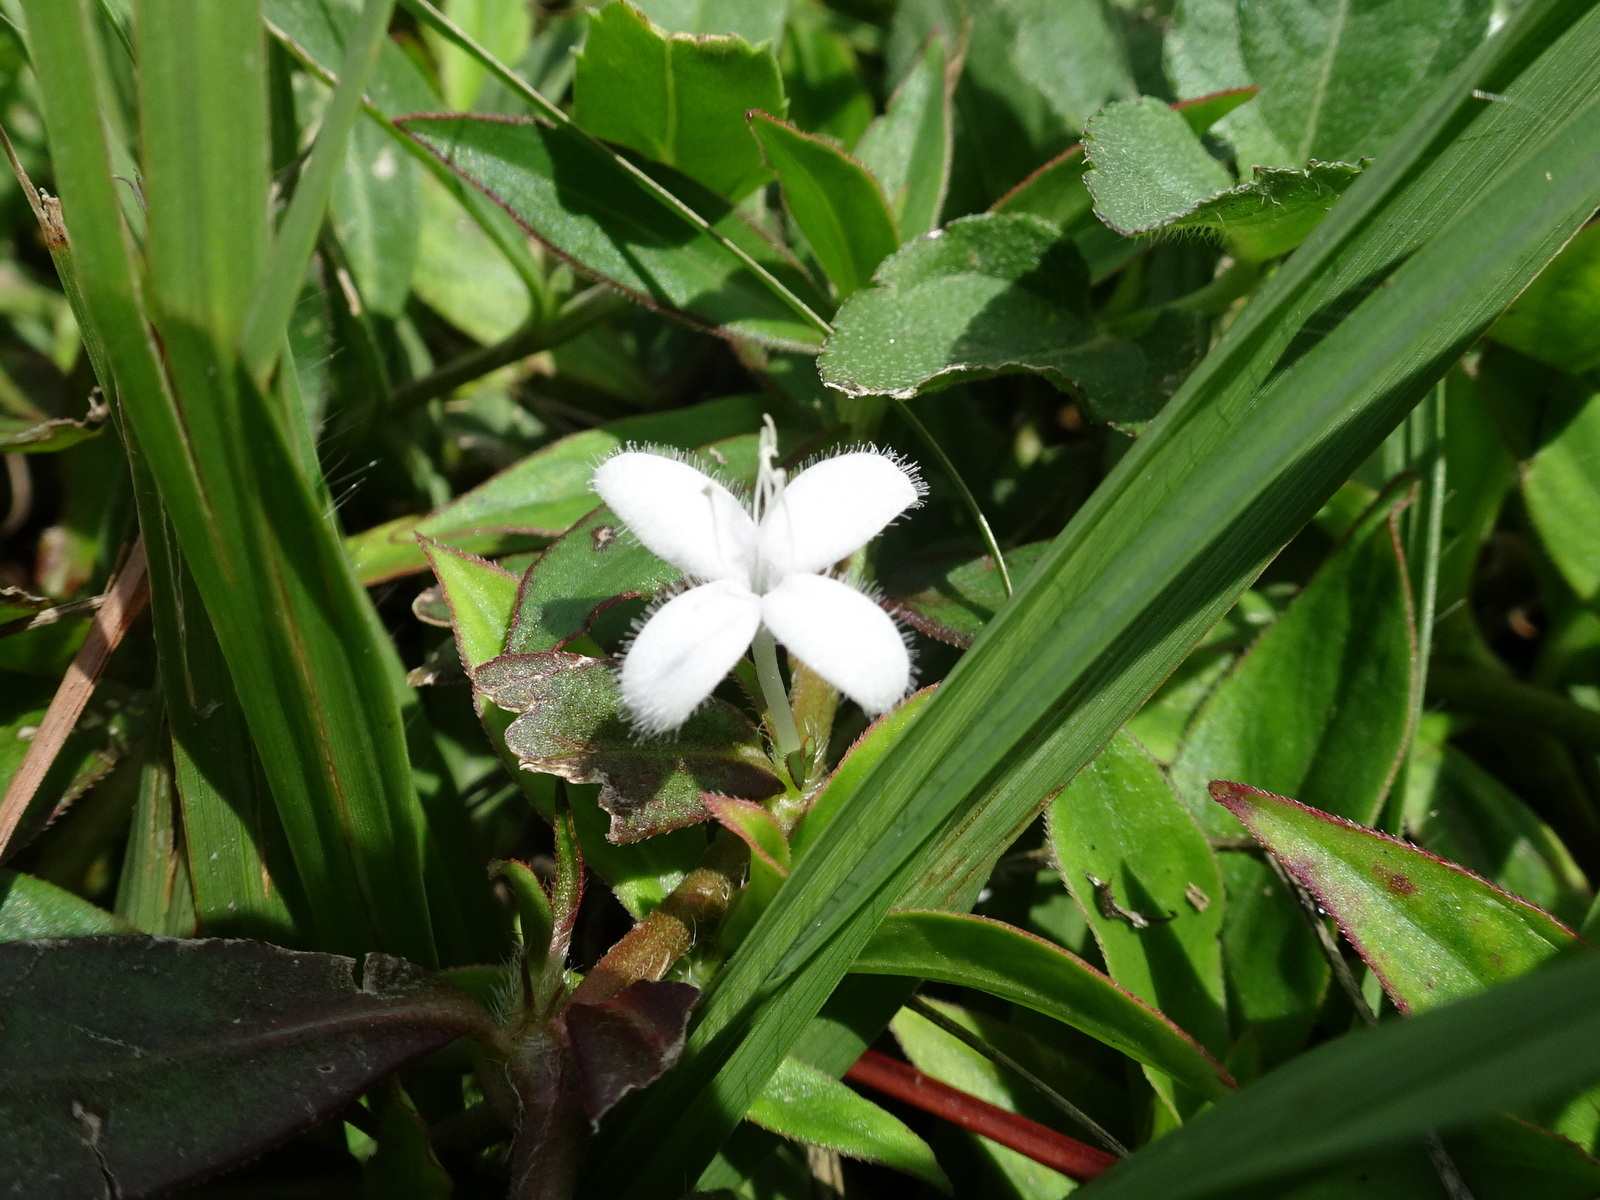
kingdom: Plantae
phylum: Tracheophyta
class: Magnoliopsida
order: Gentianales
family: Rubiaceae
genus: Diodia
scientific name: Diodia virginiana
